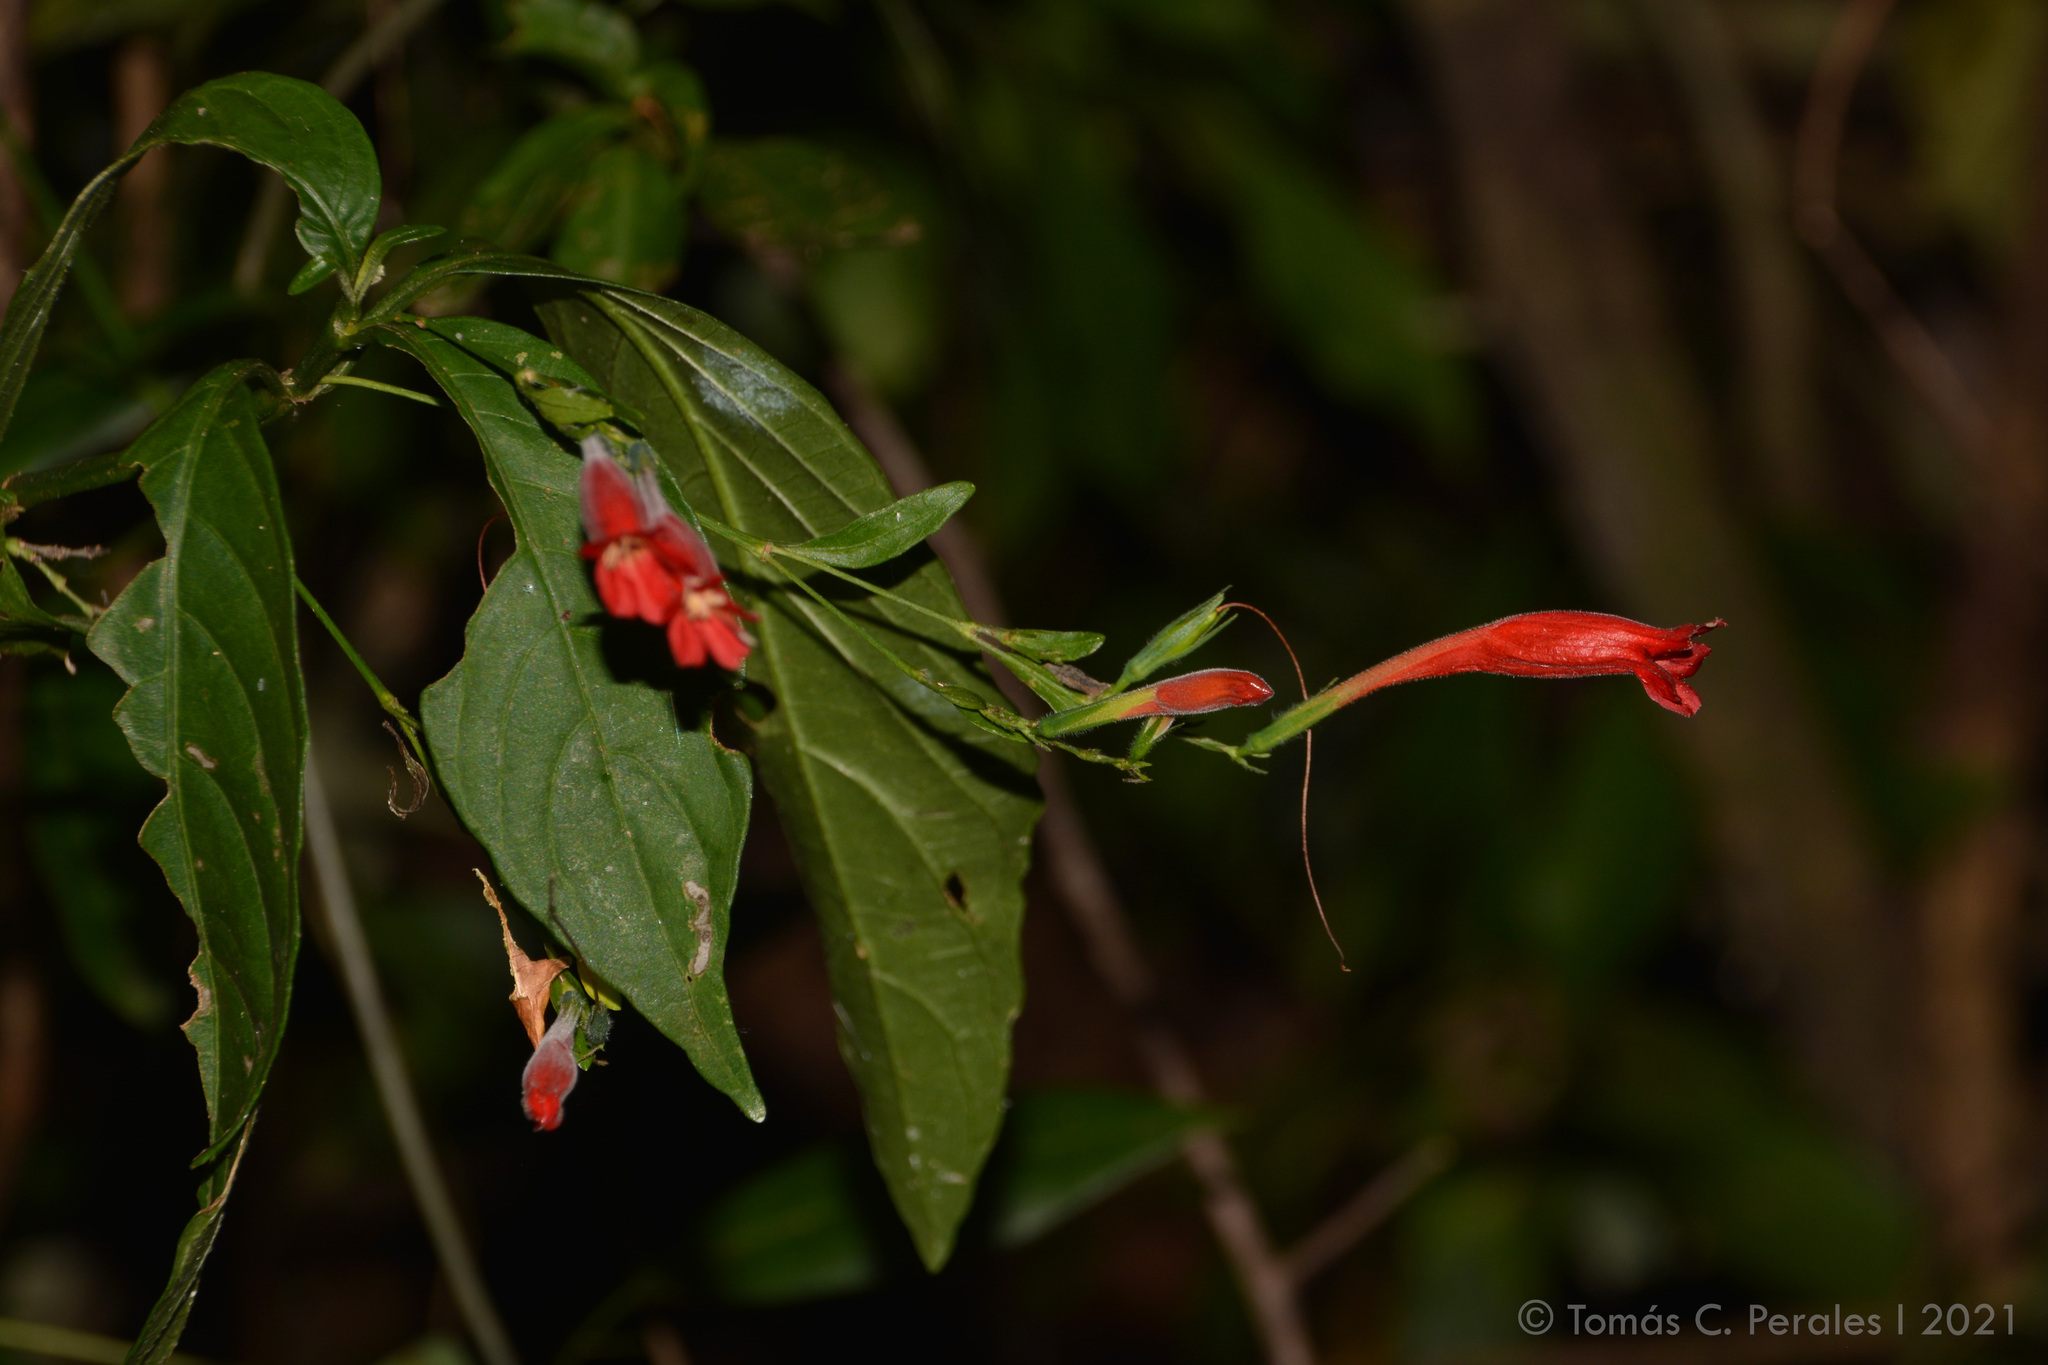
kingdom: Plantae
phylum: Tracheophyta
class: Magnoliopsida
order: Lamiales
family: Acanthaceae
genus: Ruellia
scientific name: Ruellia angustiflora
